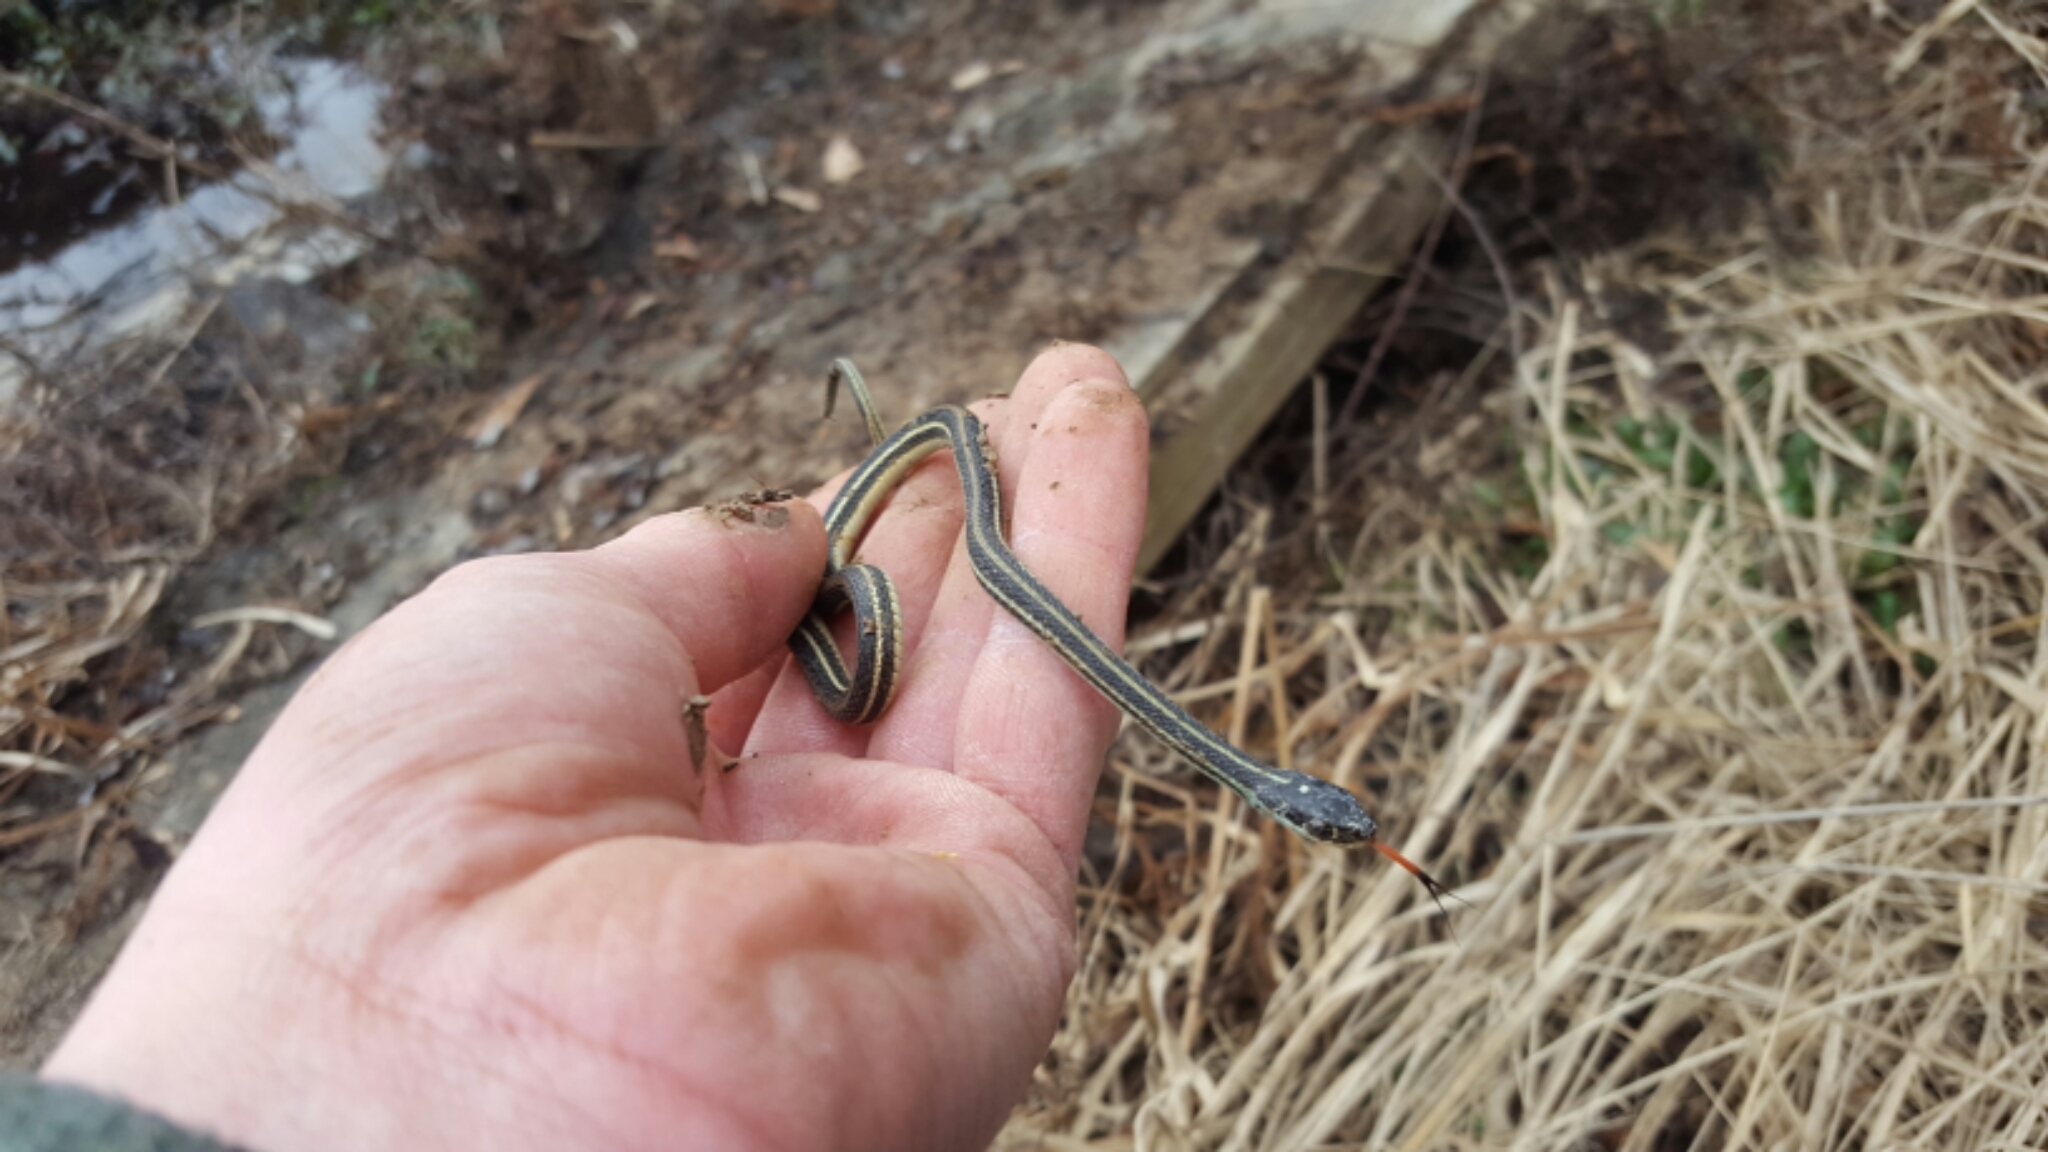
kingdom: Animalia
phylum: Chordata
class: Squamata
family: Colubridae
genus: Thamnophis
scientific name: Thamnophis proximus
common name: Western ribbon snake
